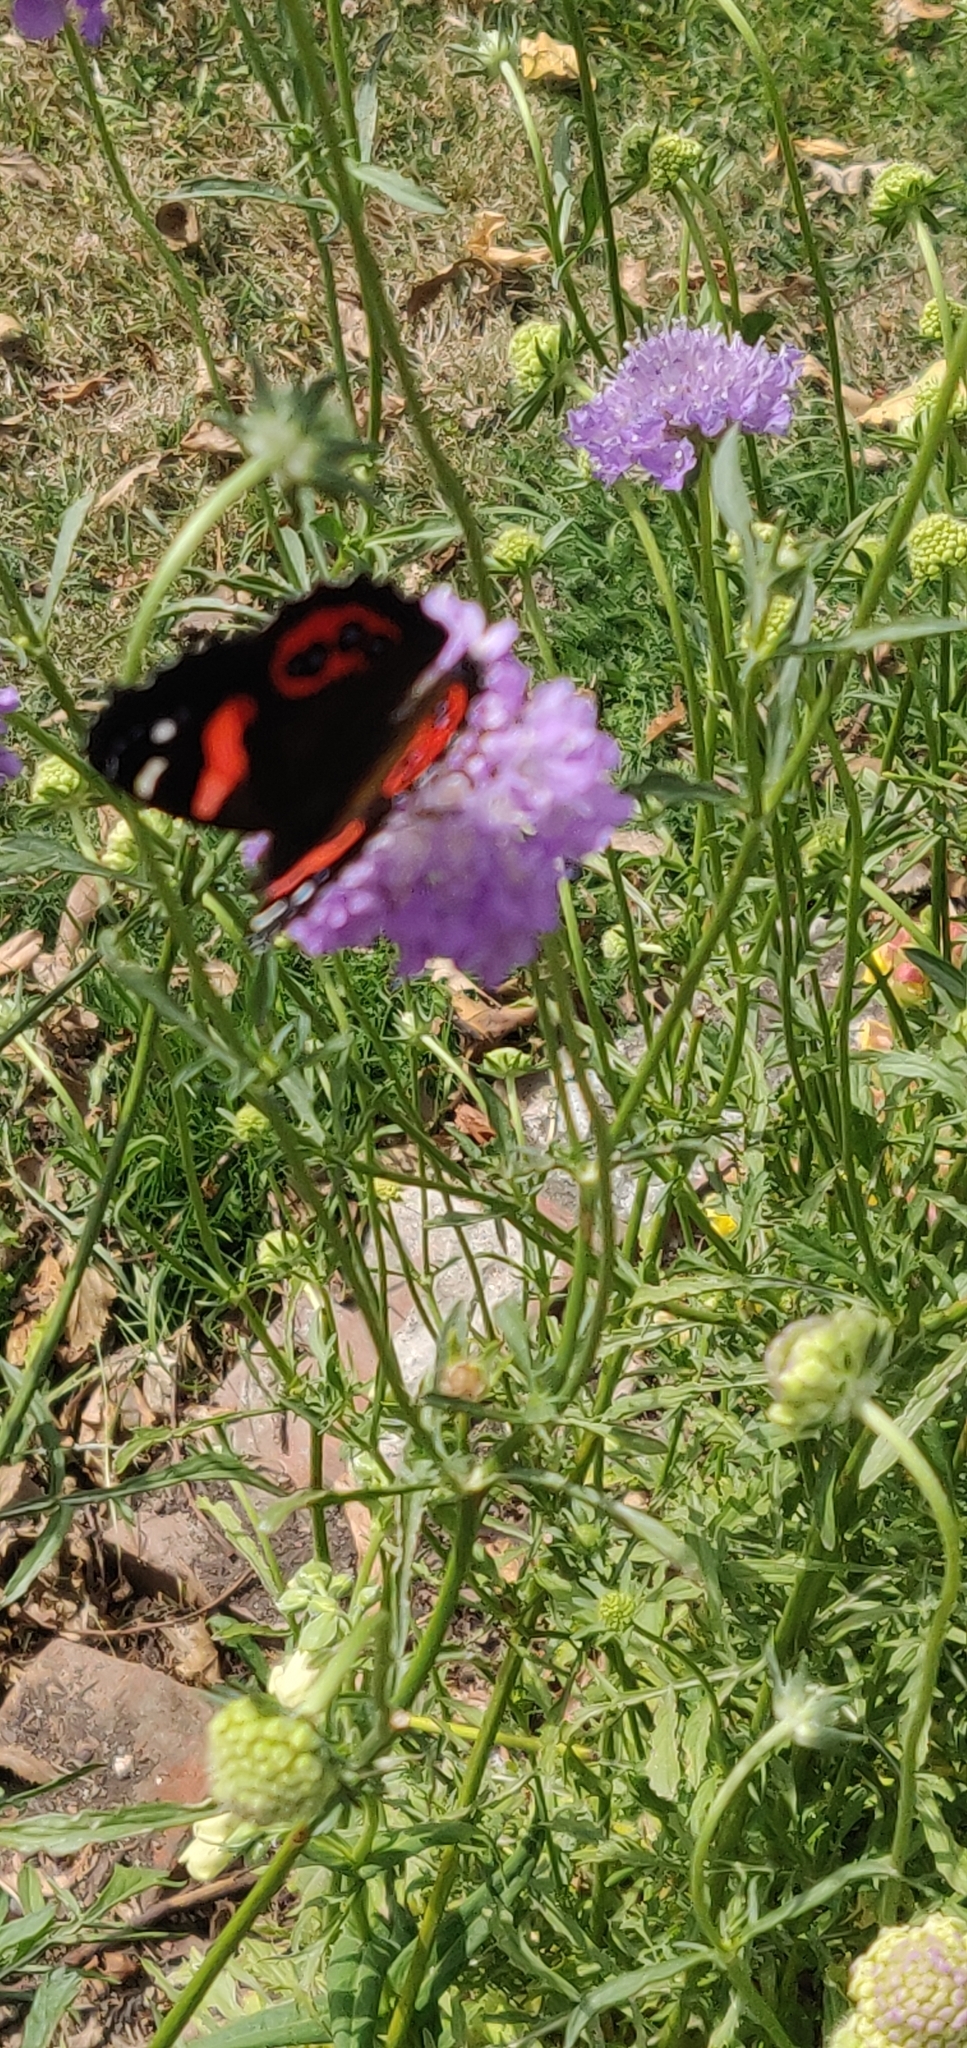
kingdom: Animalia
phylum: Arthropoda
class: Insecta
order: Lepidoptera
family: Nymphalidae
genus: Vanessa
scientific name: Vanessa gonerilla
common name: New zealand red admiral
